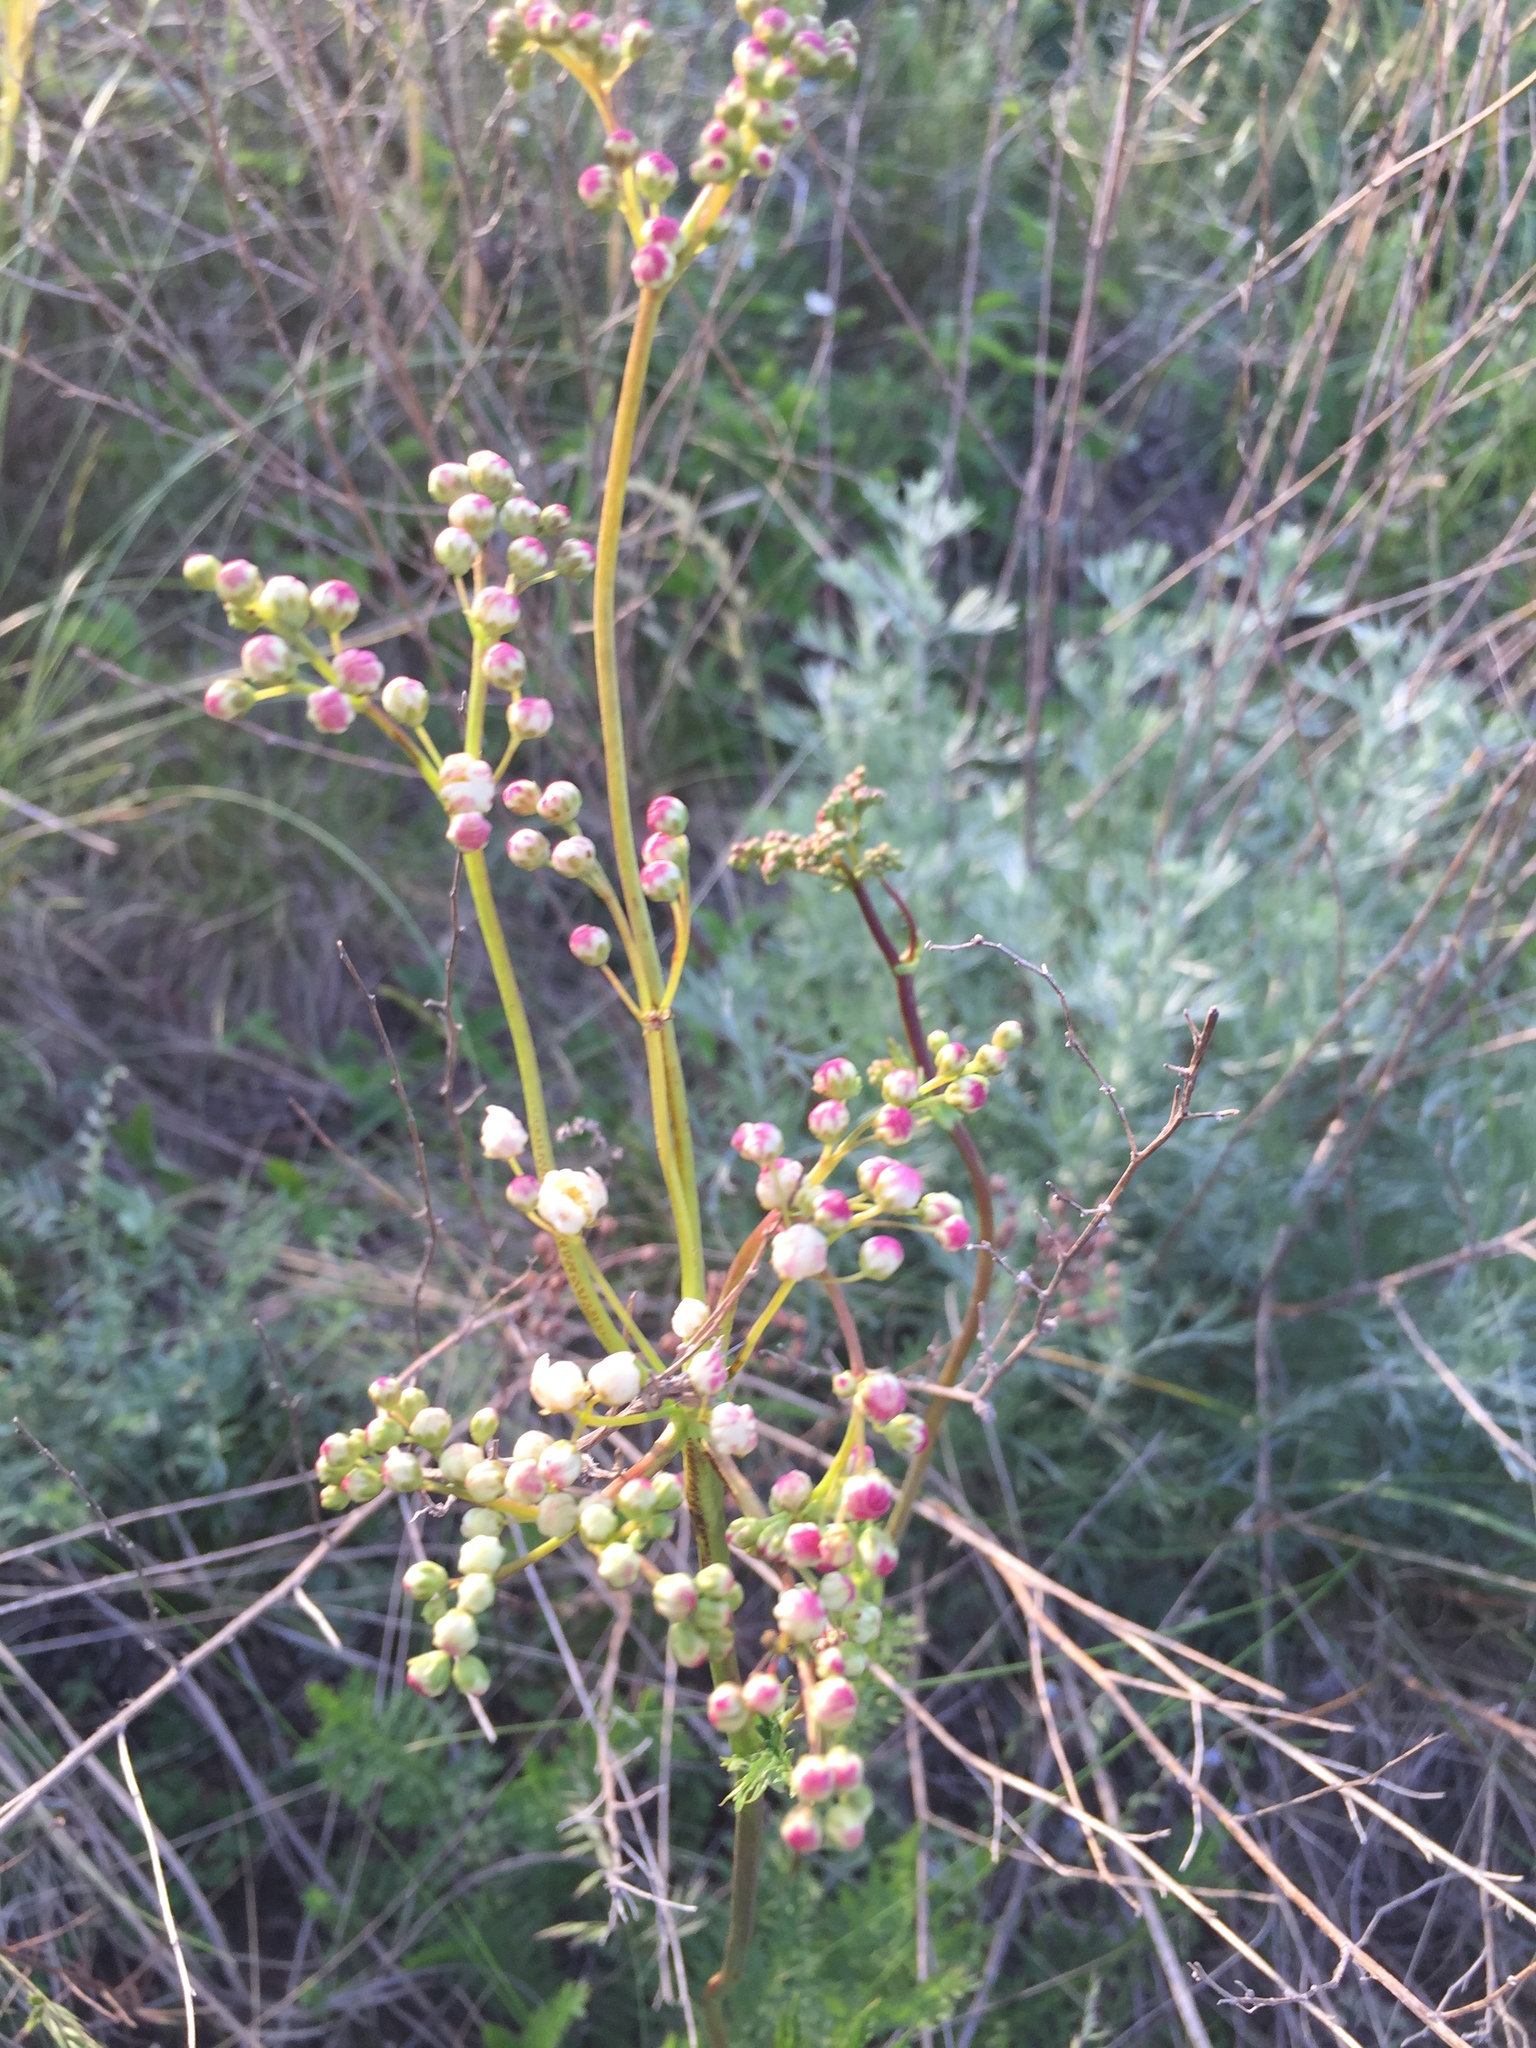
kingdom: Plantae
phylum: Tracheophyta
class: Magnoliopsida
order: Rosales
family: Rosaceae
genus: Filipendula
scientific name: Filipendula vulgaris
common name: Dropwort
